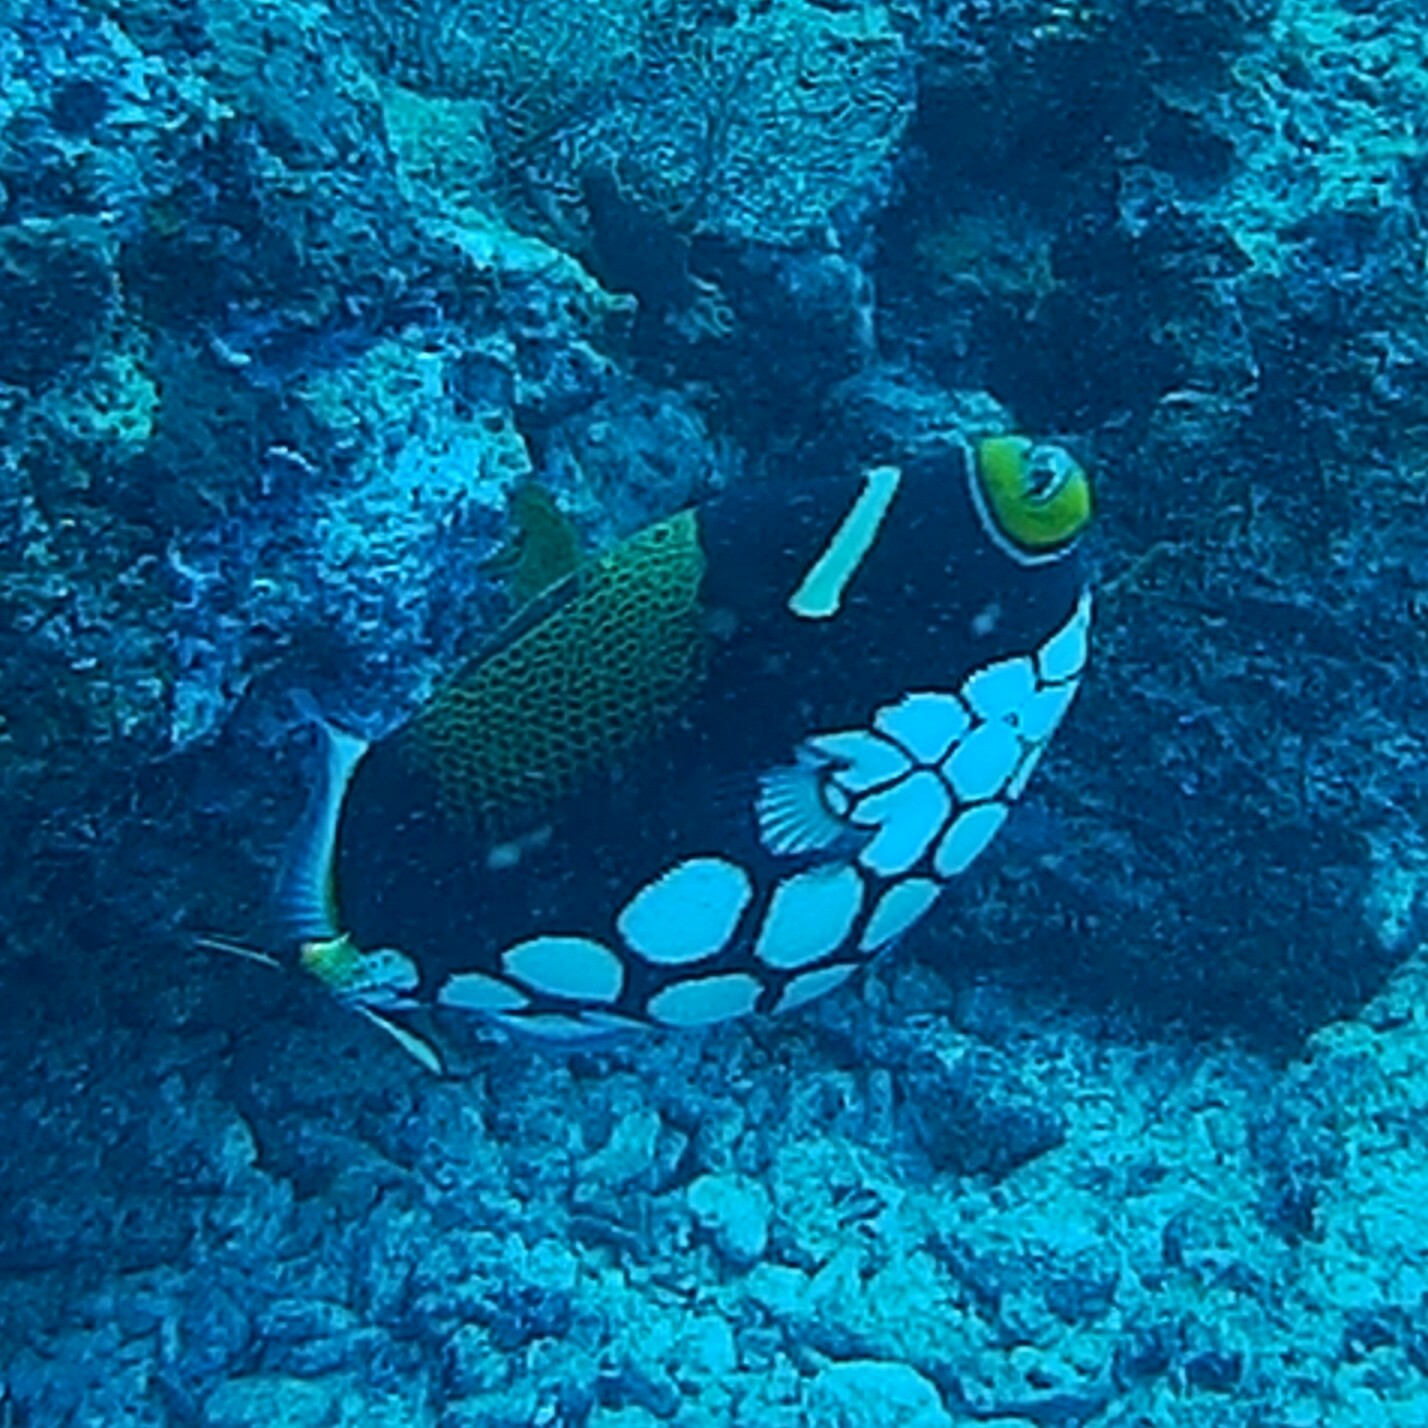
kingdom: Animalia
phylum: Chordata
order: Tetraodontiformes
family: Balistidae
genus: Balistoides
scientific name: Balistoides conspicillum
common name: Clown triggerfish
